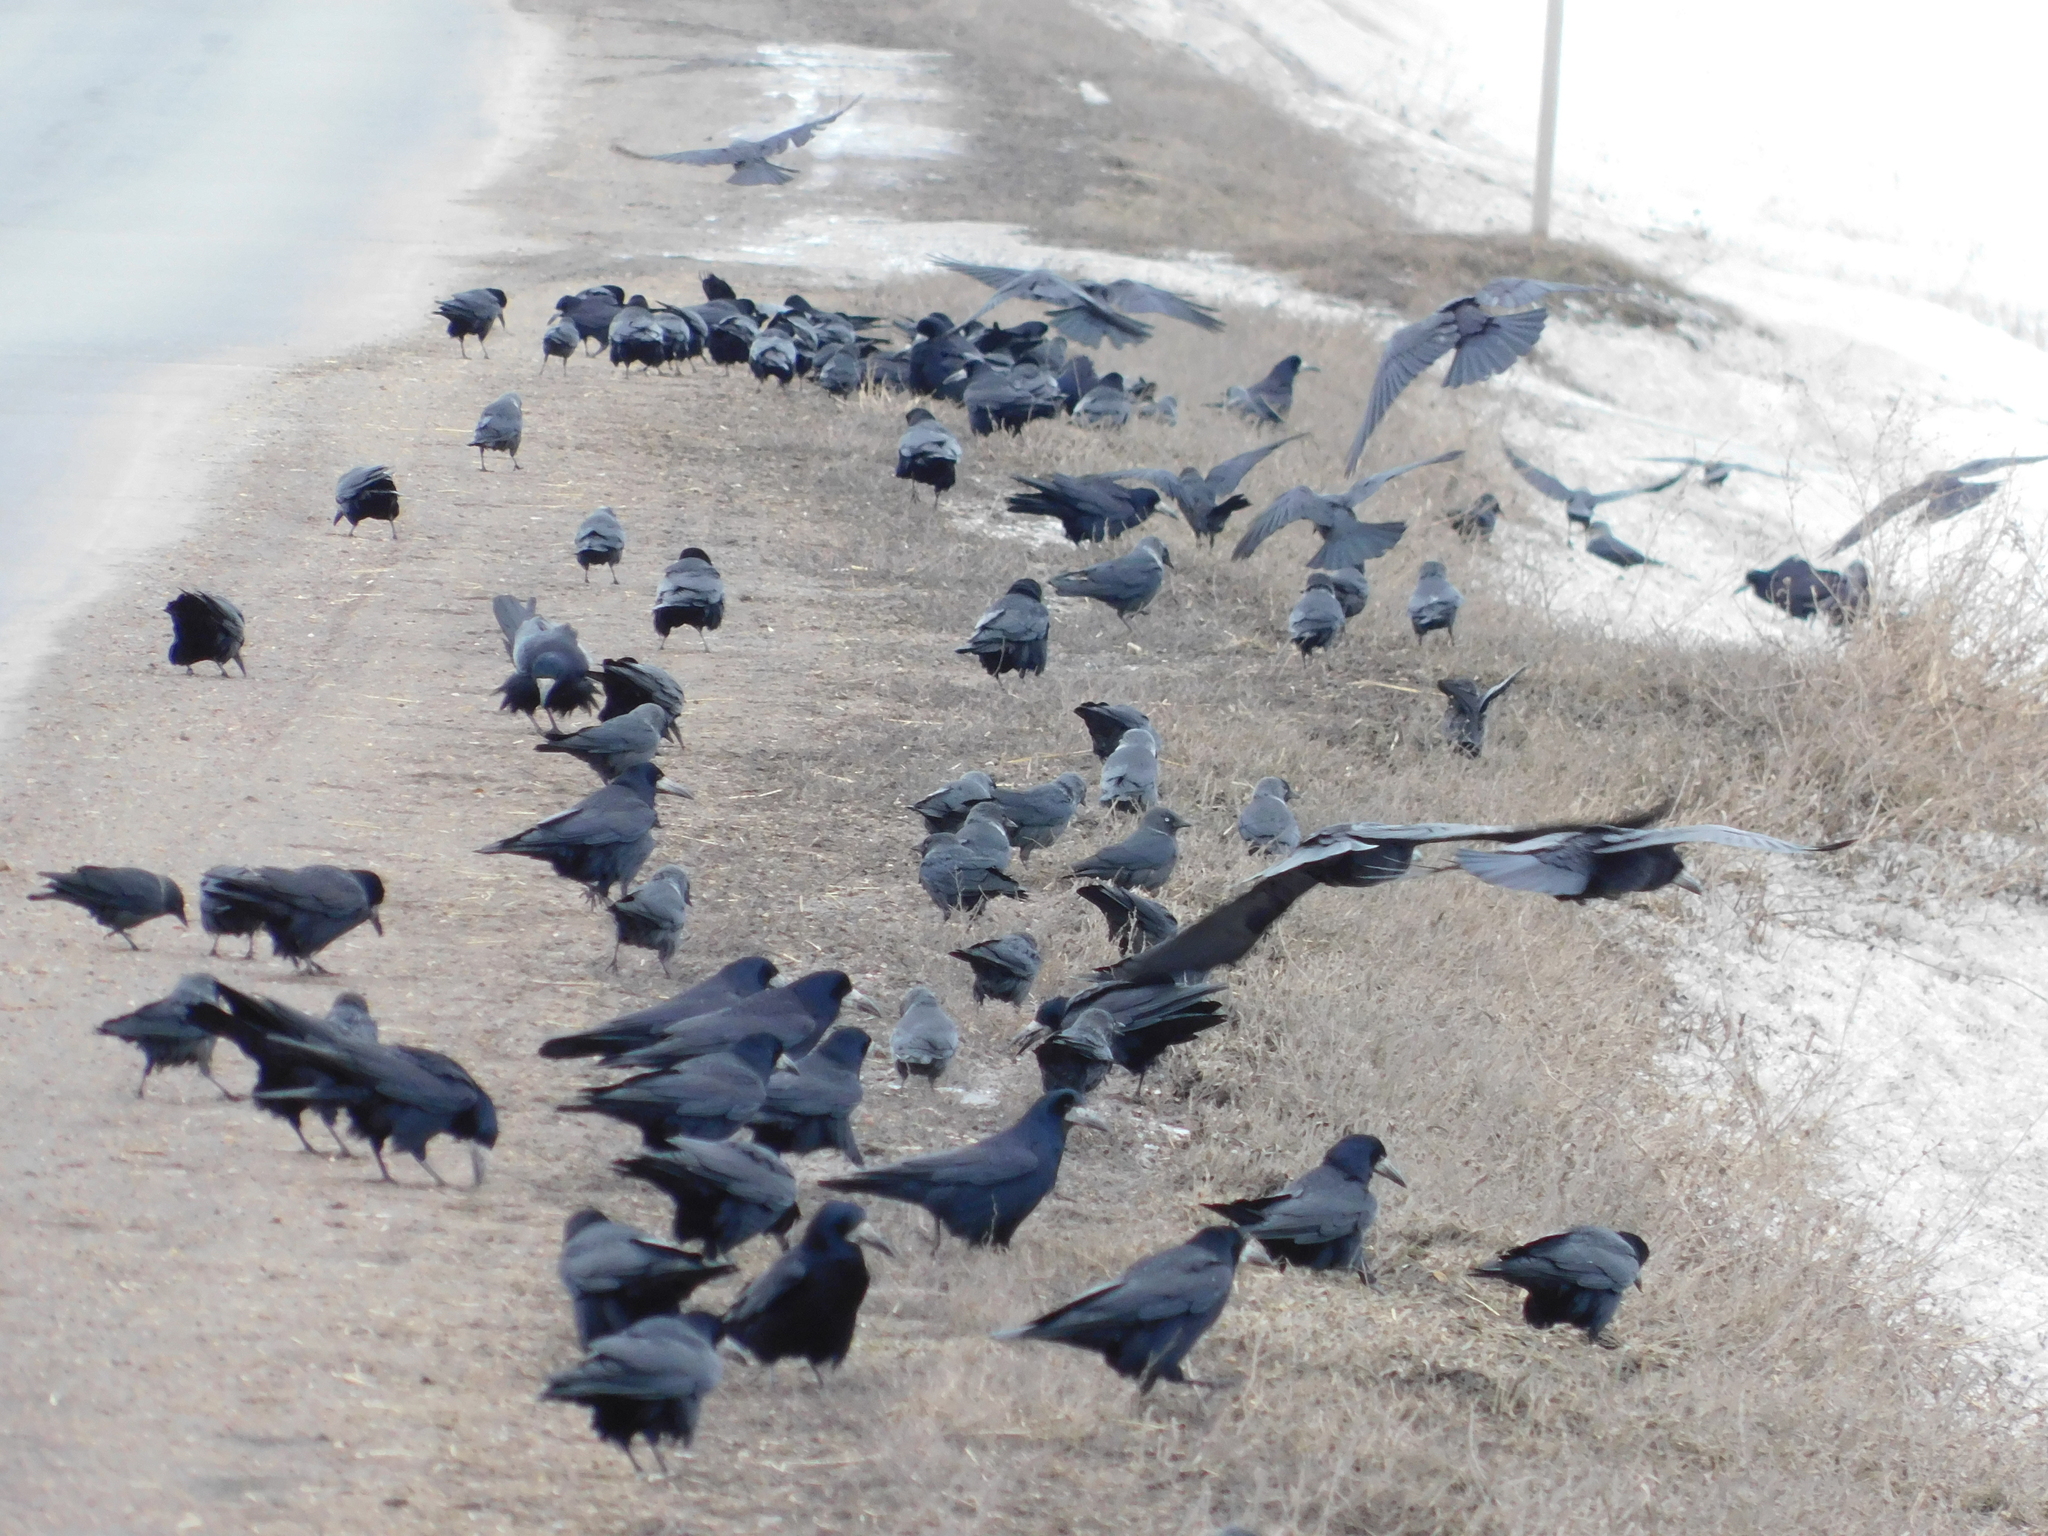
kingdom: Animalia
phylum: Chordata
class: Aves
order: Passeriformes
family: Corvidae
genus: Coloeus
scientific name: Coloeus monedula
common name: Western jackdaw
